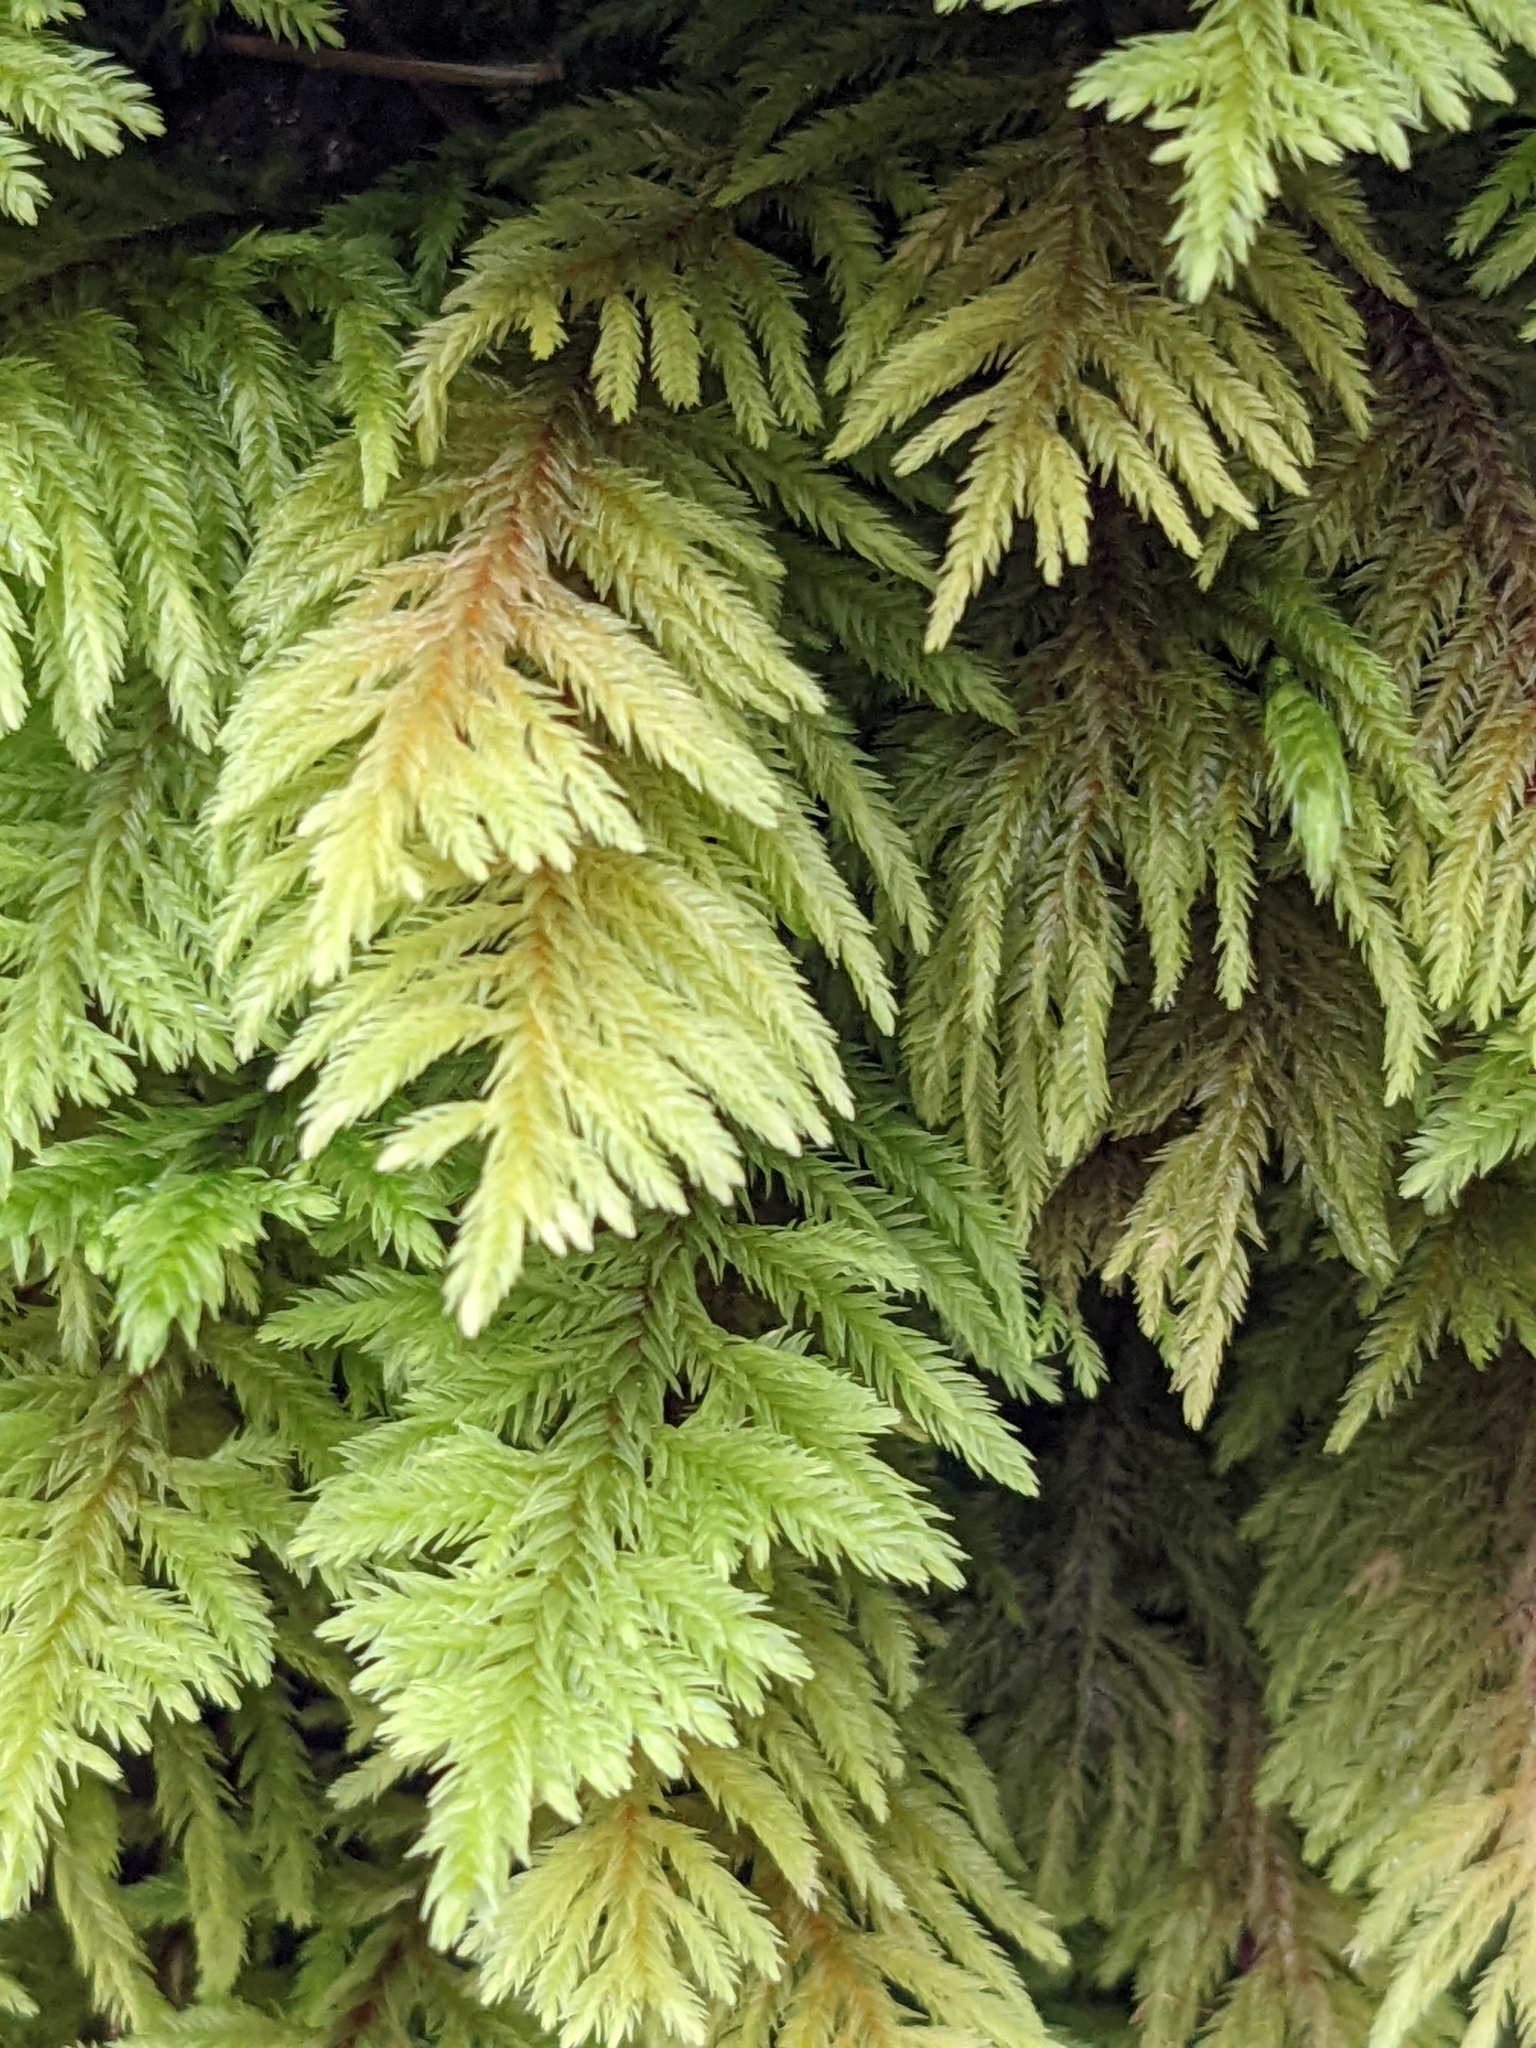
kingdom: Plantae
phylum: Bryophyta
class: Bryopsida
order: Hypnales
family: Cryphaeaceae
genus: Dendroalsia
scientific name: Dendroalsia abietina
